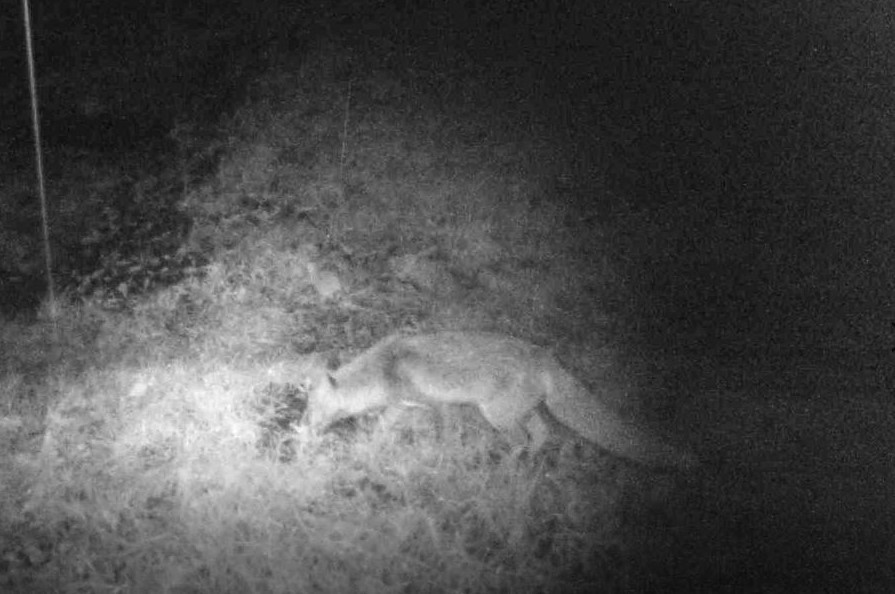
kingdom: Animalia
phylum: Chordata
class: Mammalia
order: Carnivora
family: Canidae
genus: Vulpes
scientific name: Vulpes vulpes
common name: Red fox
